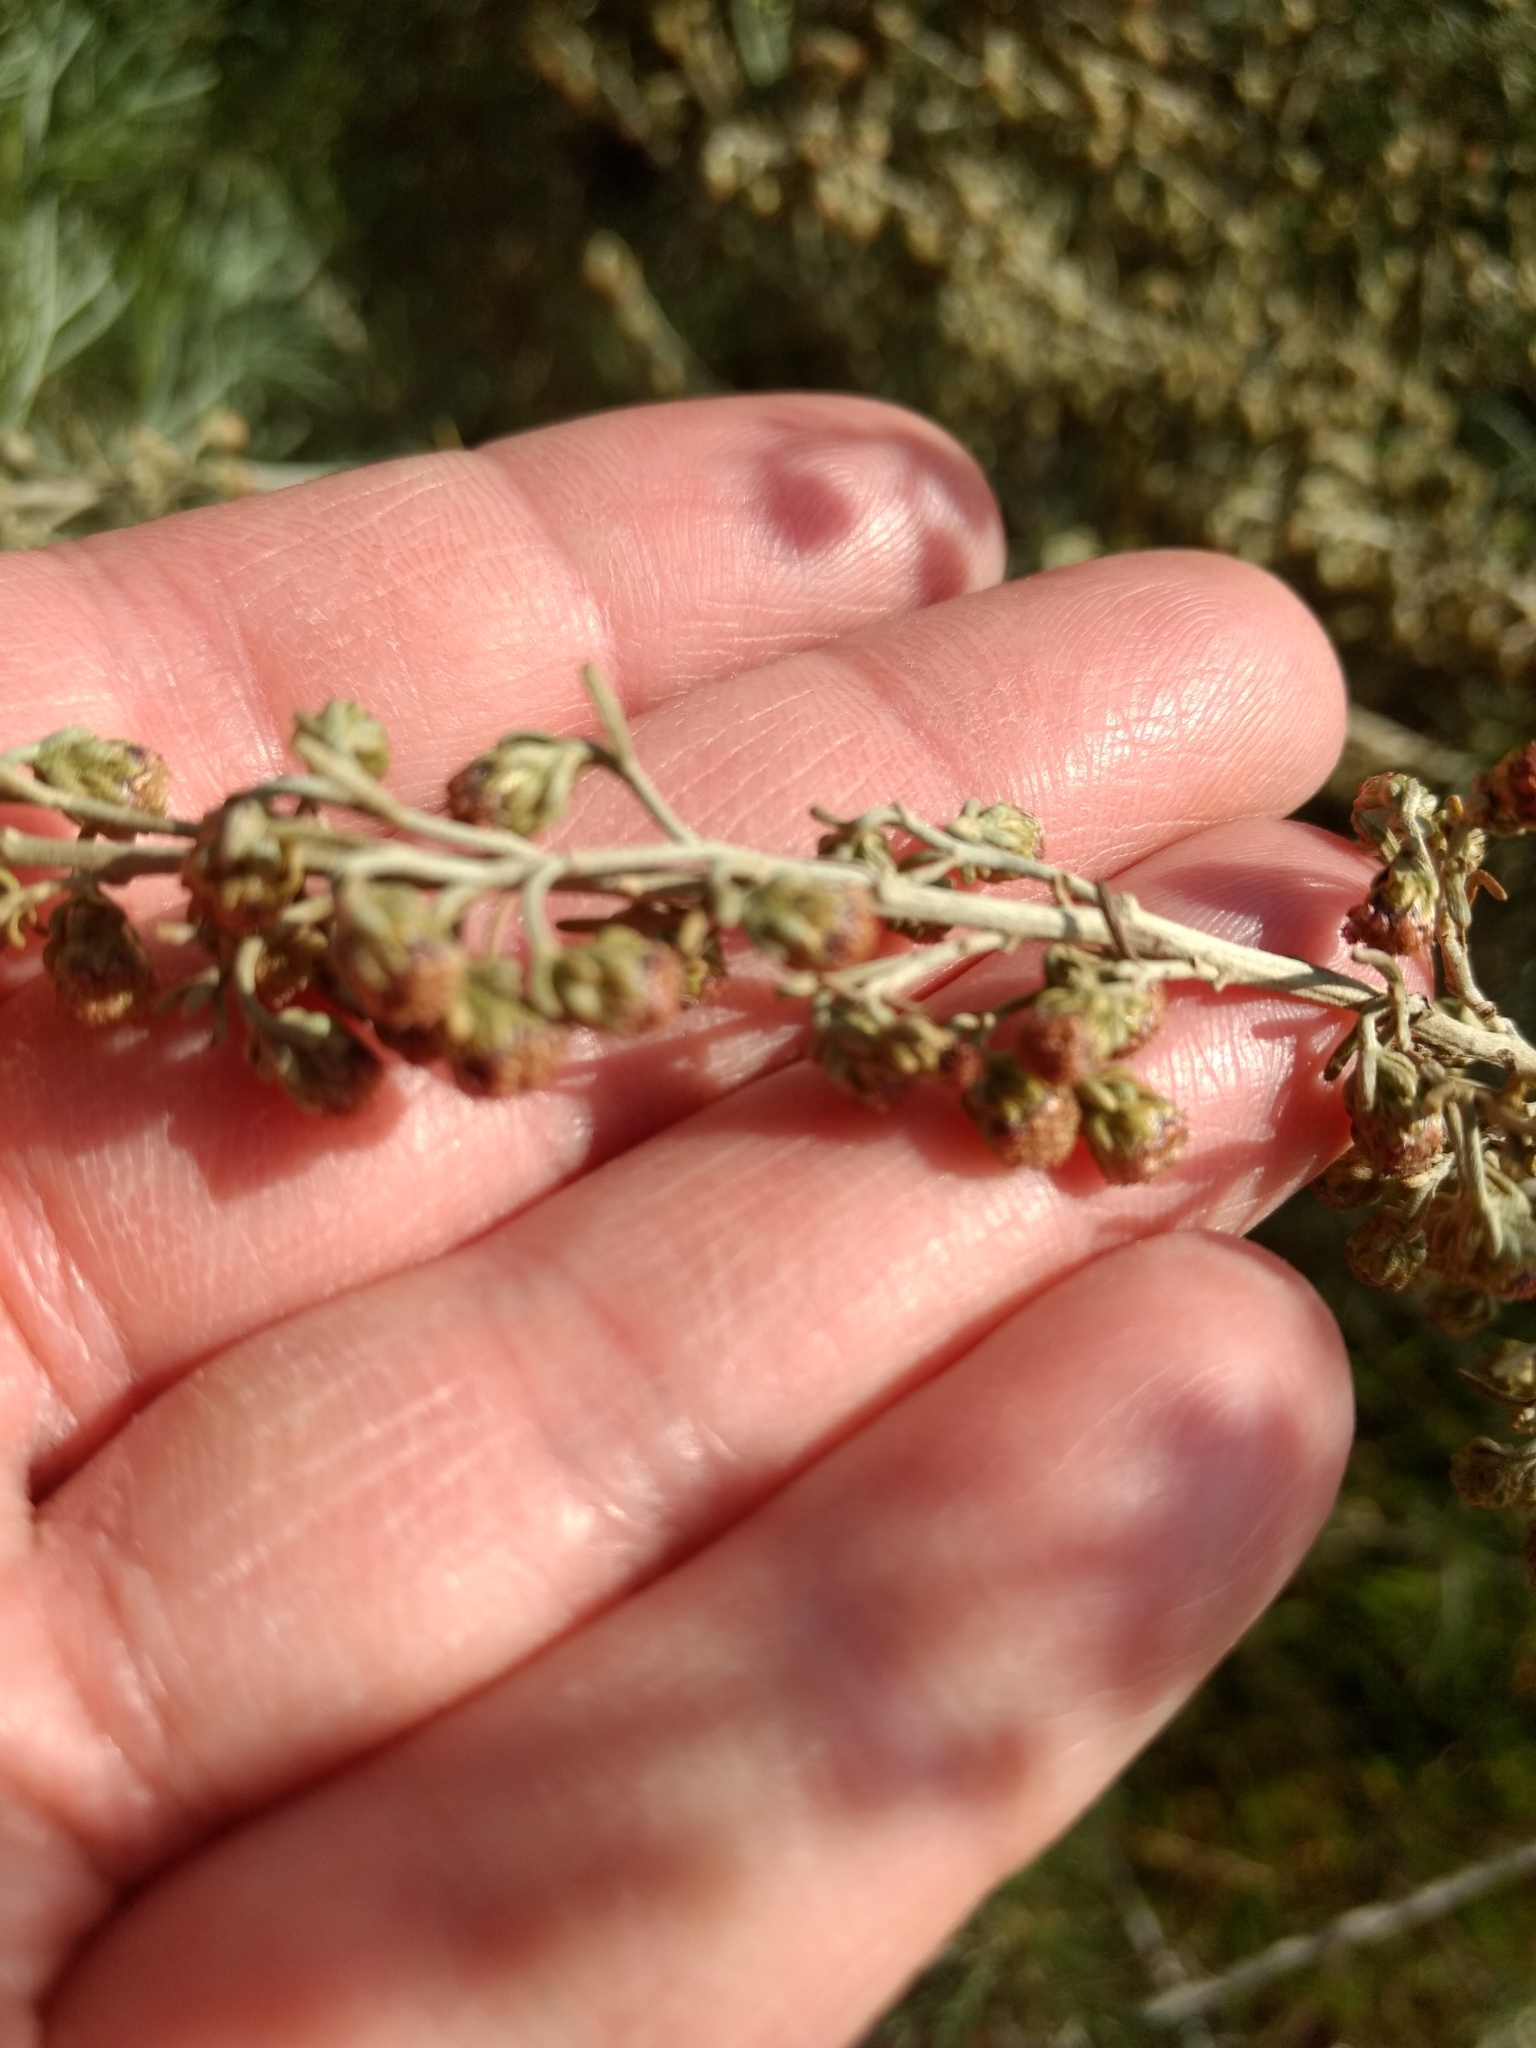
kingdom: Plantae
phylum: Tracheophyta
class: Magnoliopsida
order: Asterales
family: Asteraceae
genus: Artemisia
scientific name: Artemisia californica
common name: California sagebrush
